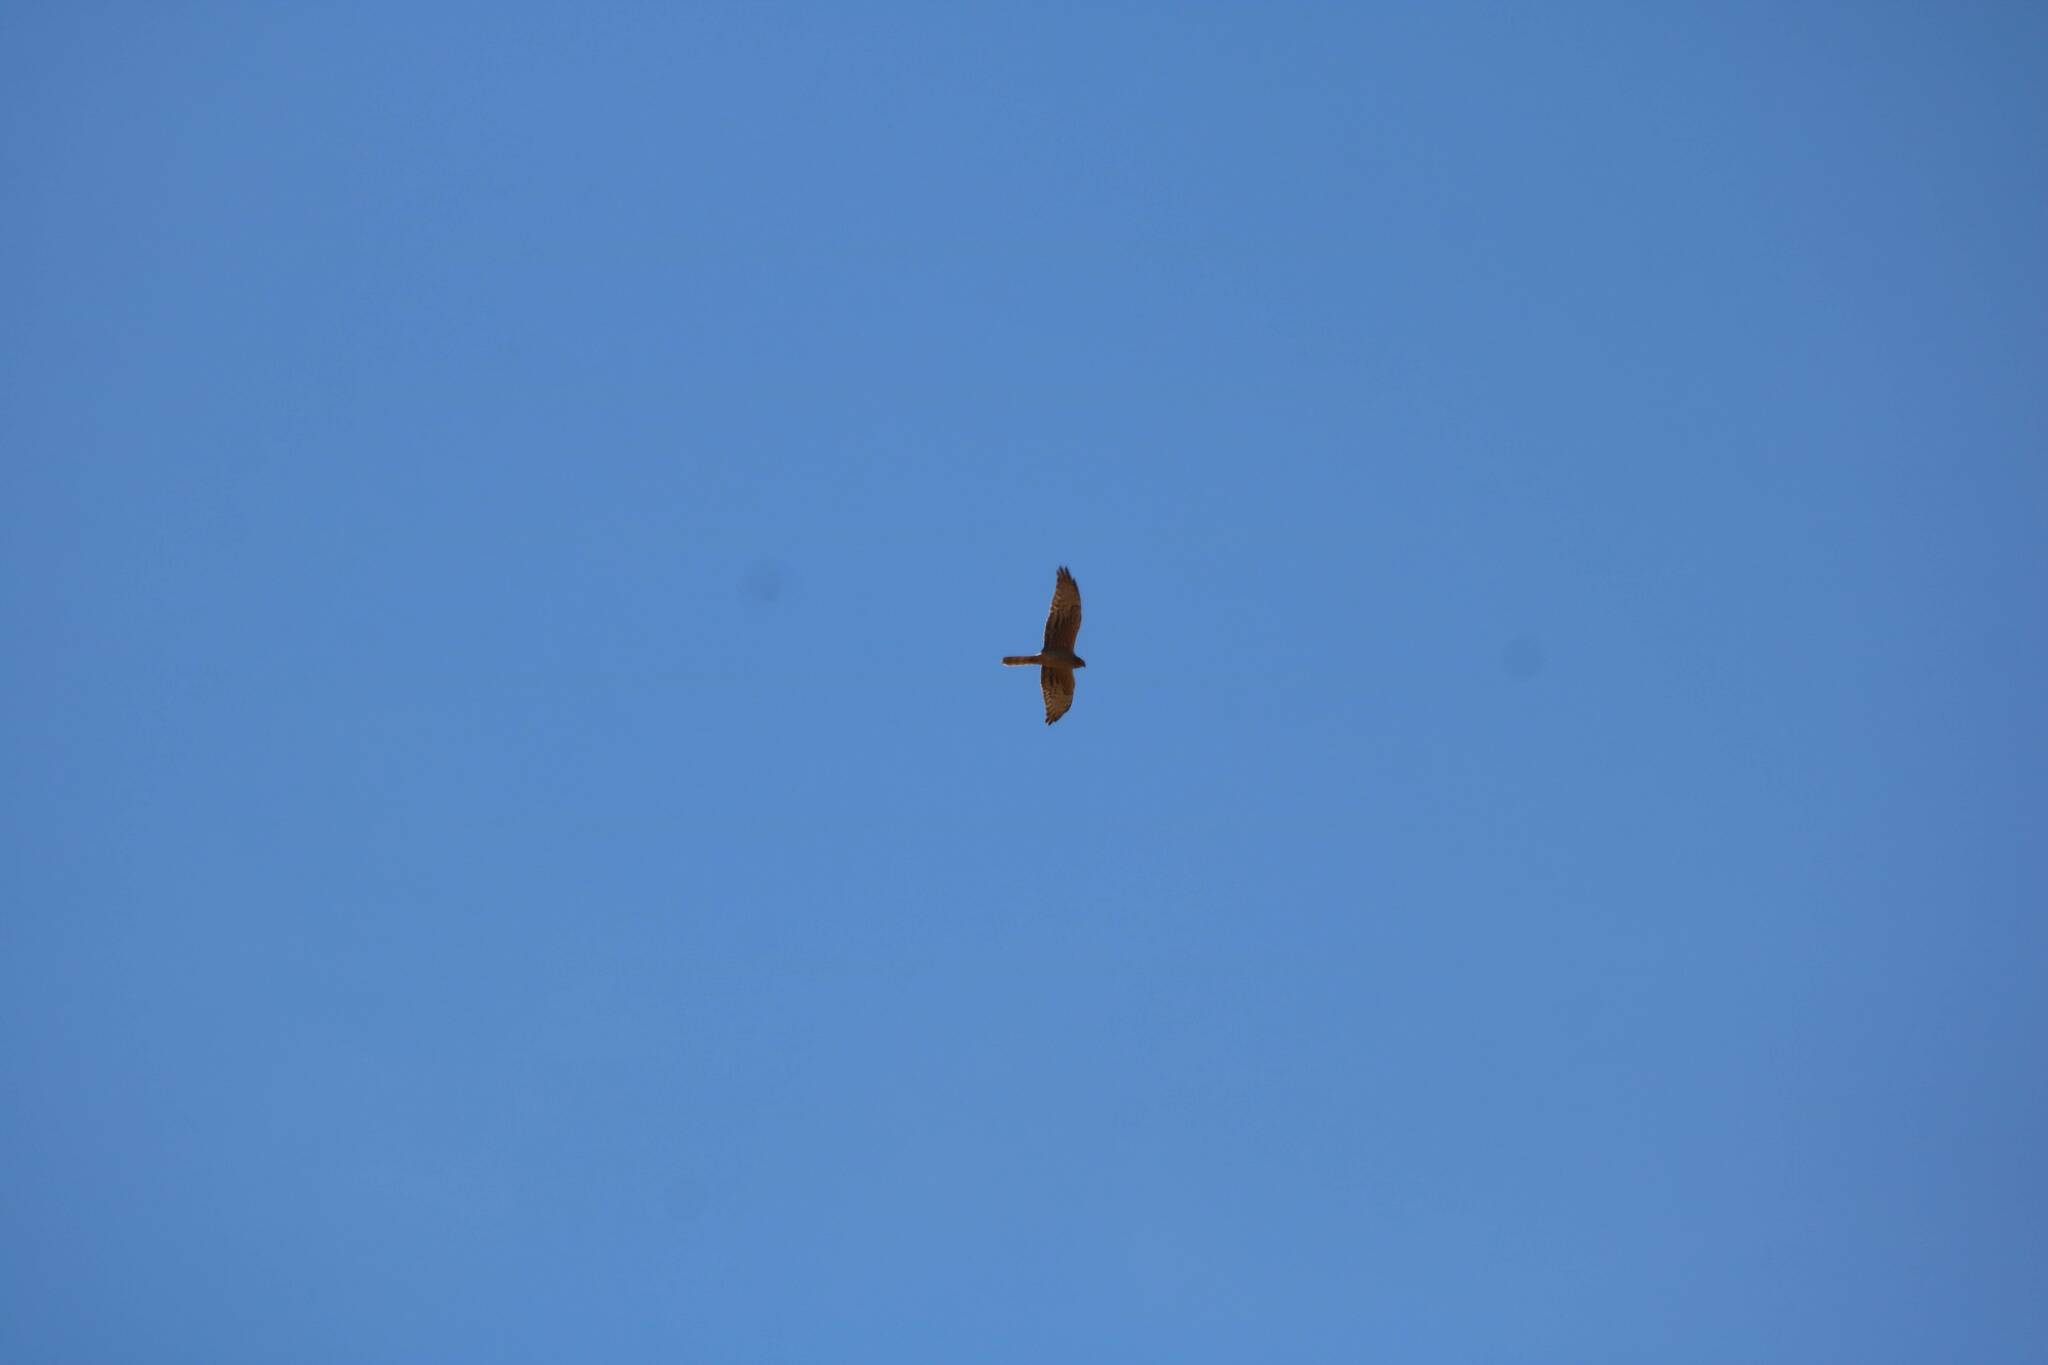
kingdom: Animalia
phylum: Chordata
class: Aves
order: Accipitriformes
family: Accipitridae
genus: Circus
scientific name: Circus pygargus
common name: Montagu's harrier
